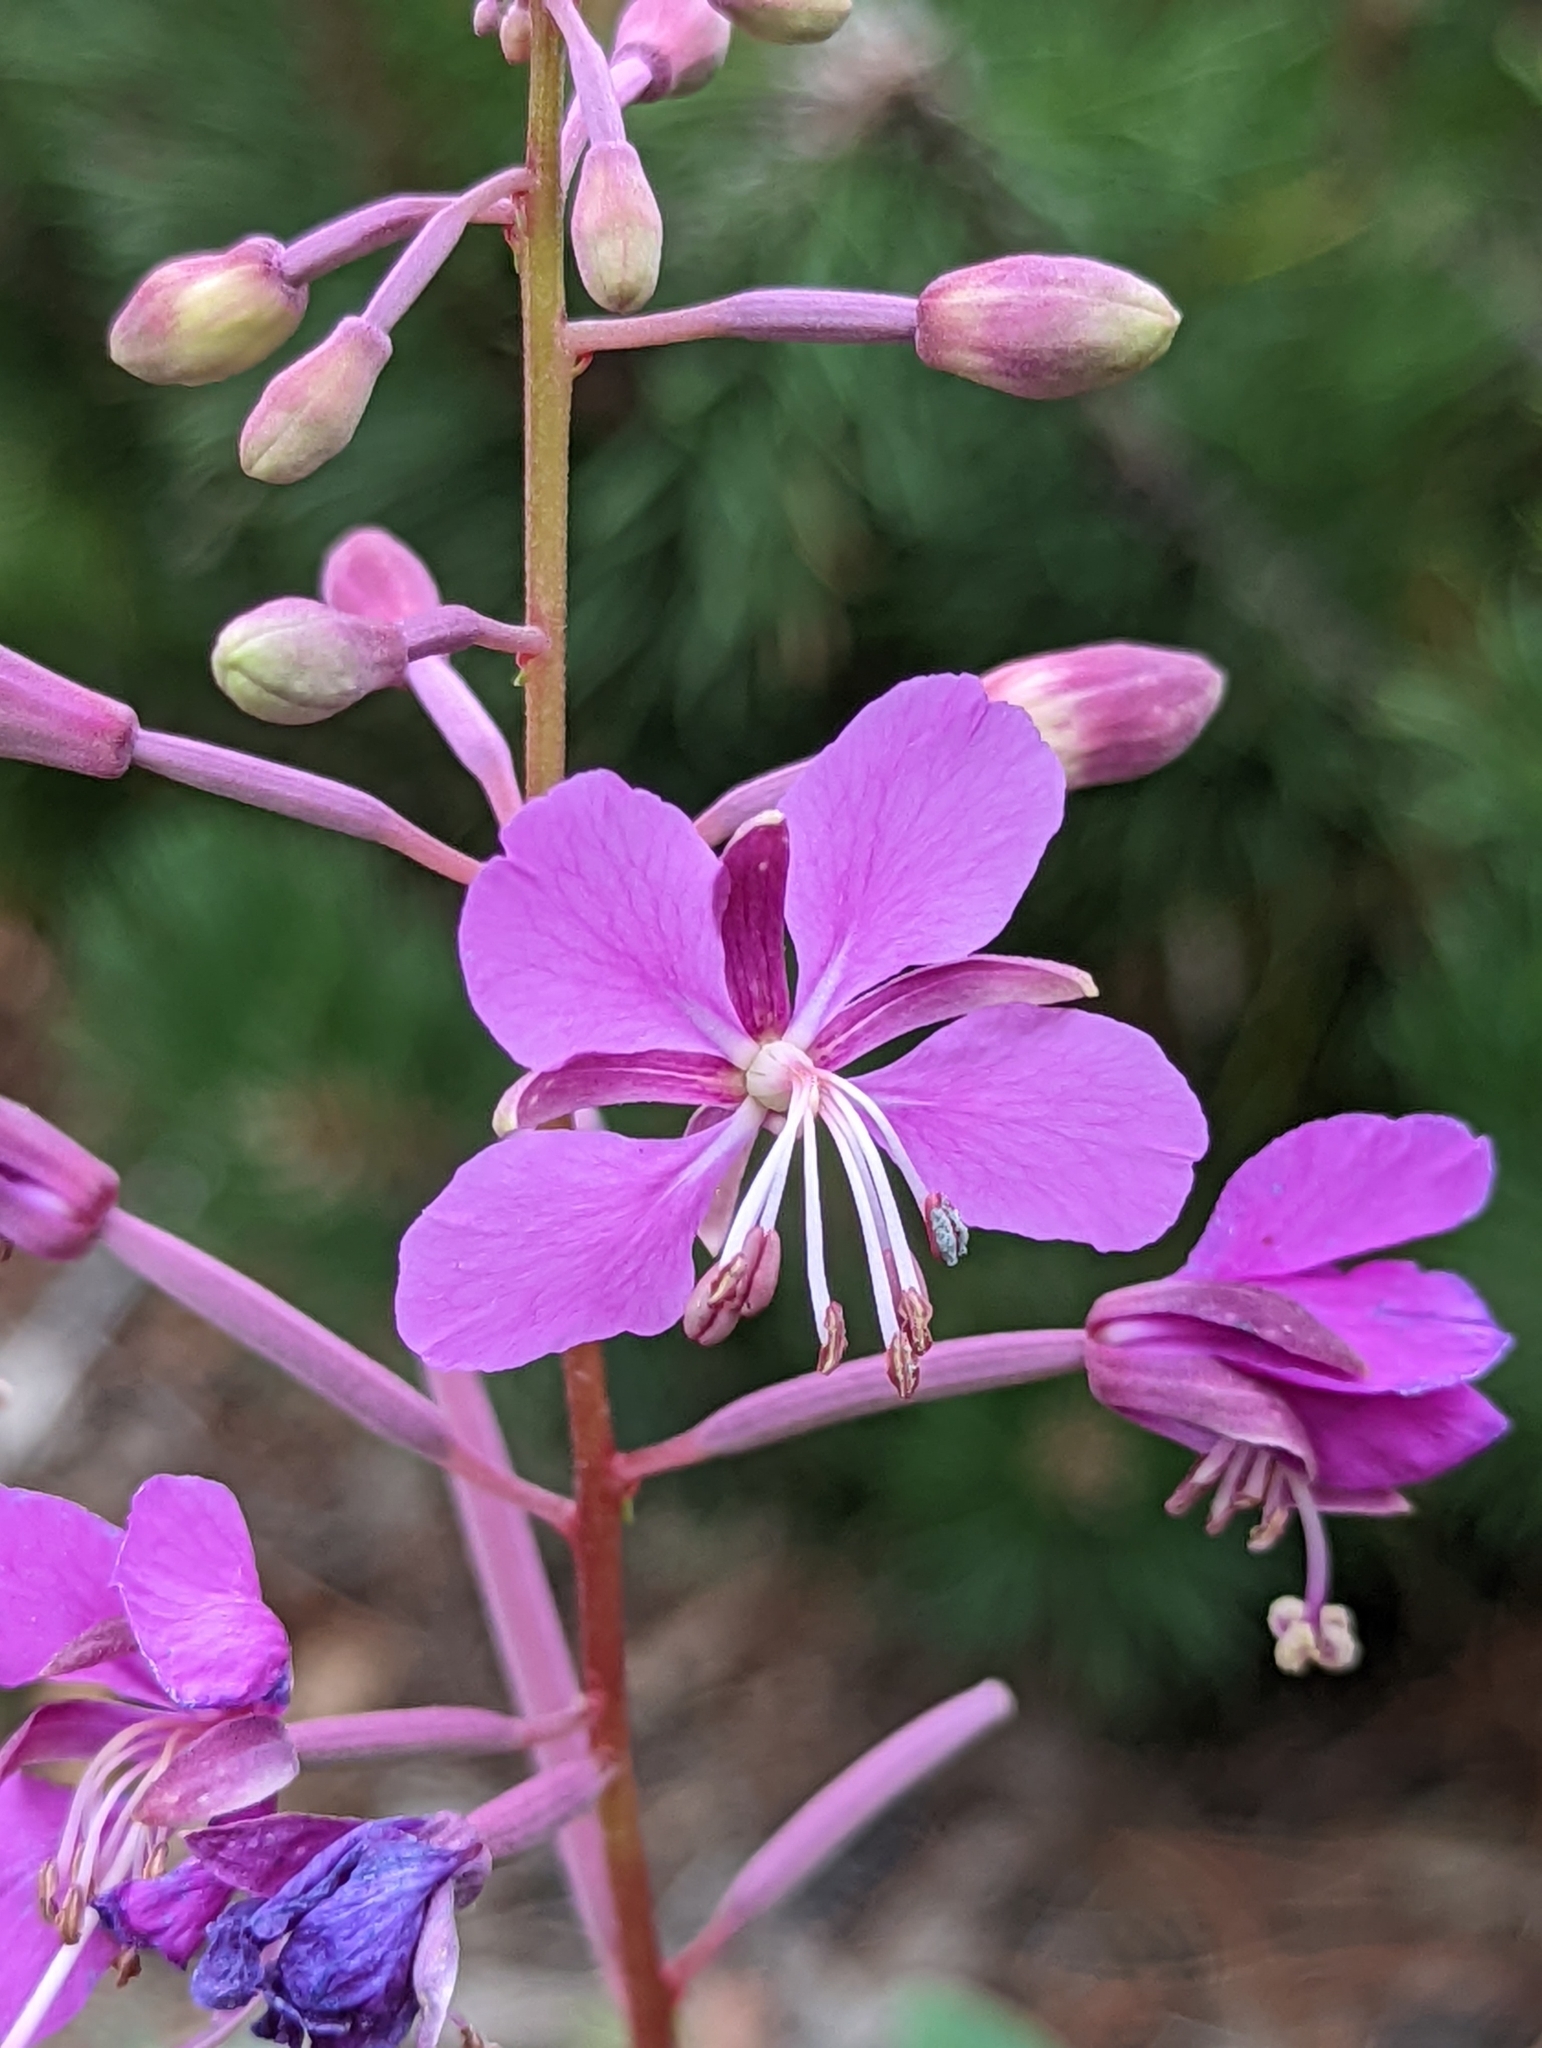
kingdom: Plantae
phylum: Tracheophyta
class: Magnoliopsida
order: Myrtales
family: Onagraceae
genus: Chamaenerion
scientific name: Chamaenerion angustifolium
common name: Fireweed
